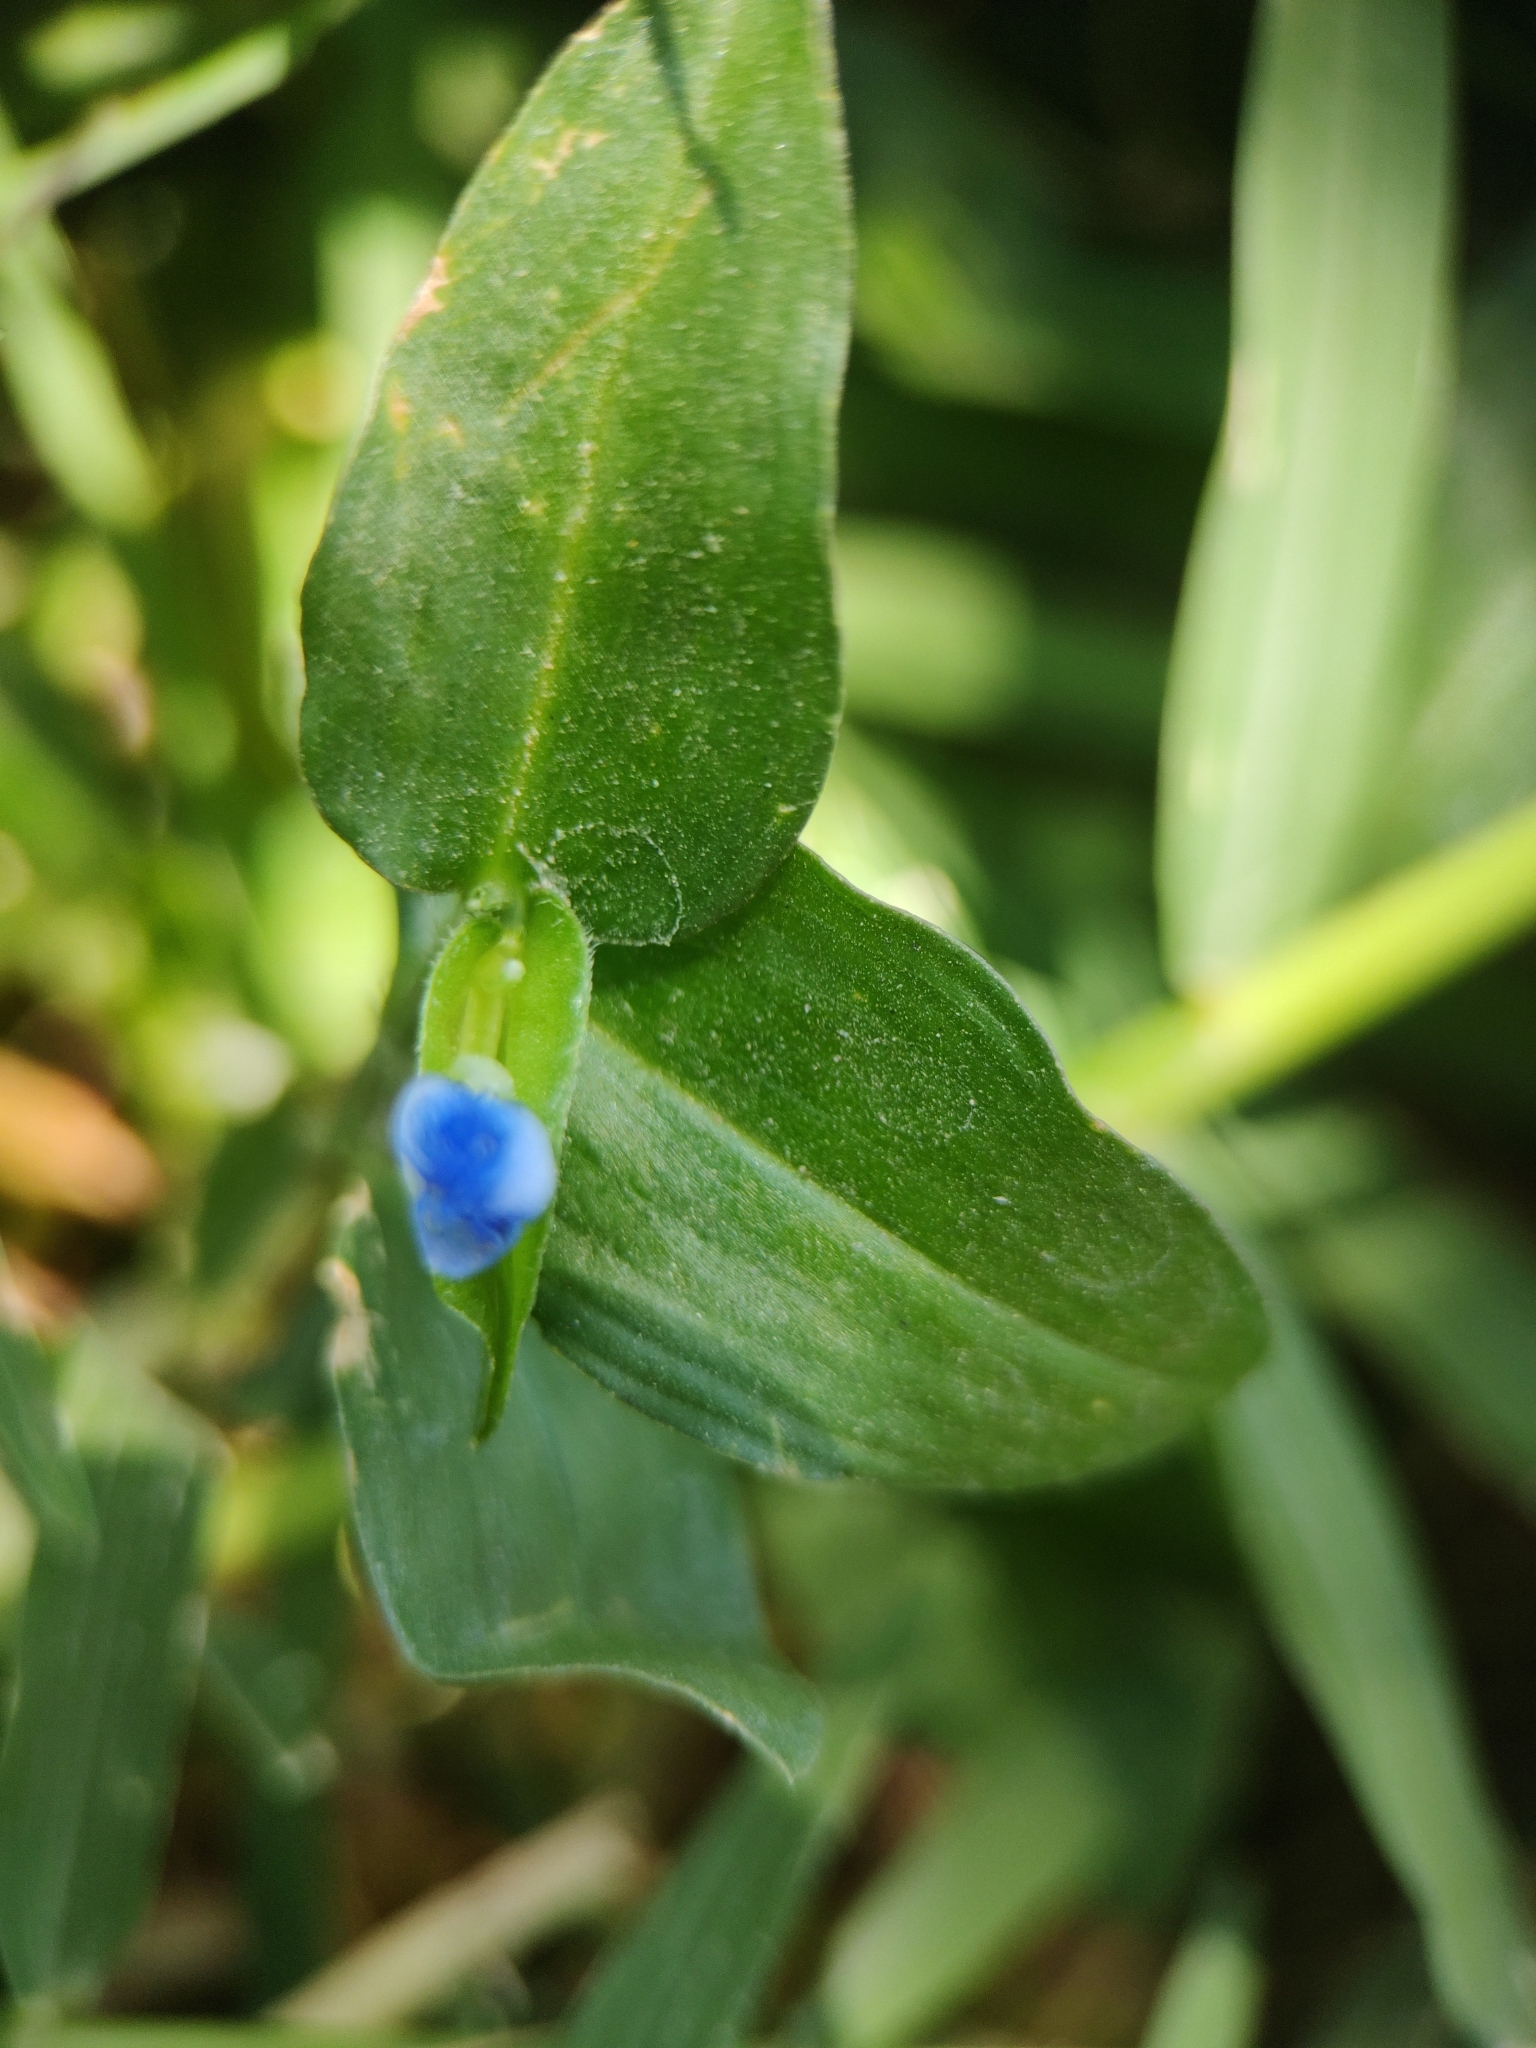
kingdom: Plantae
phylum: Tracheophyta
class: Liliopsida
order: Commelinales
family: Commelinaceae
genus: Commelina
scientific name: Commelina diffusa
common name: Climbing dayflower
